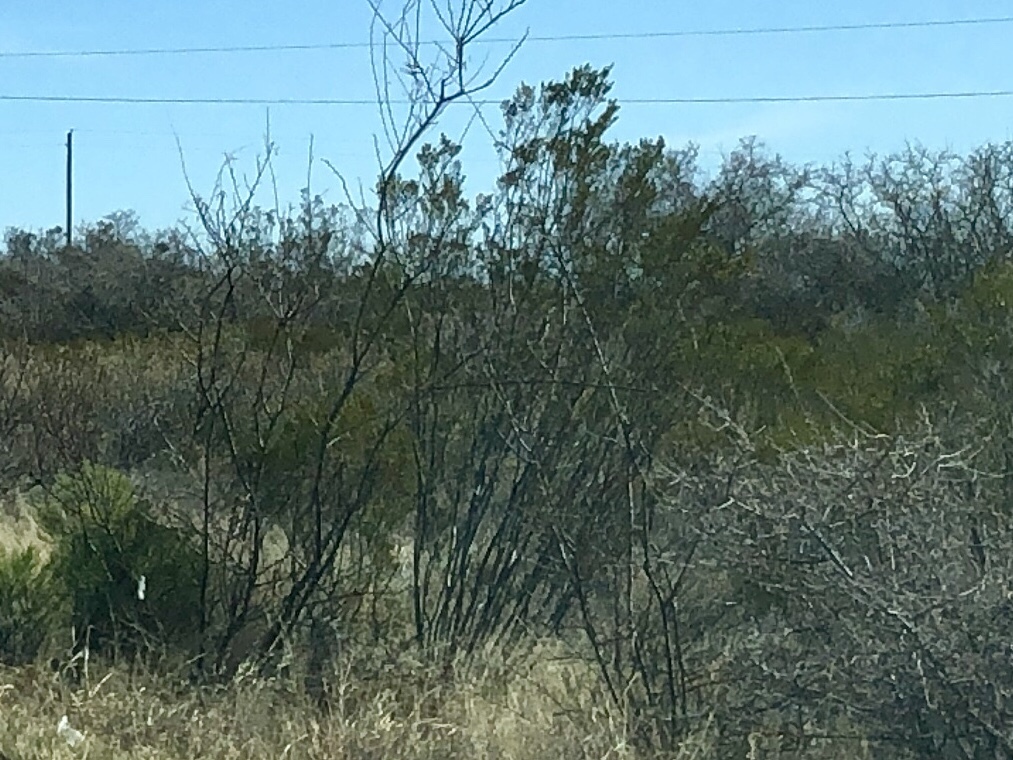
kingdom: Plantae
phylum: Tracheophyta
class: Magnoliopsida
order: Zygophyllales
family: Zygophyllaceae
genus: Larrea
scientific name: Larrea tridentata
